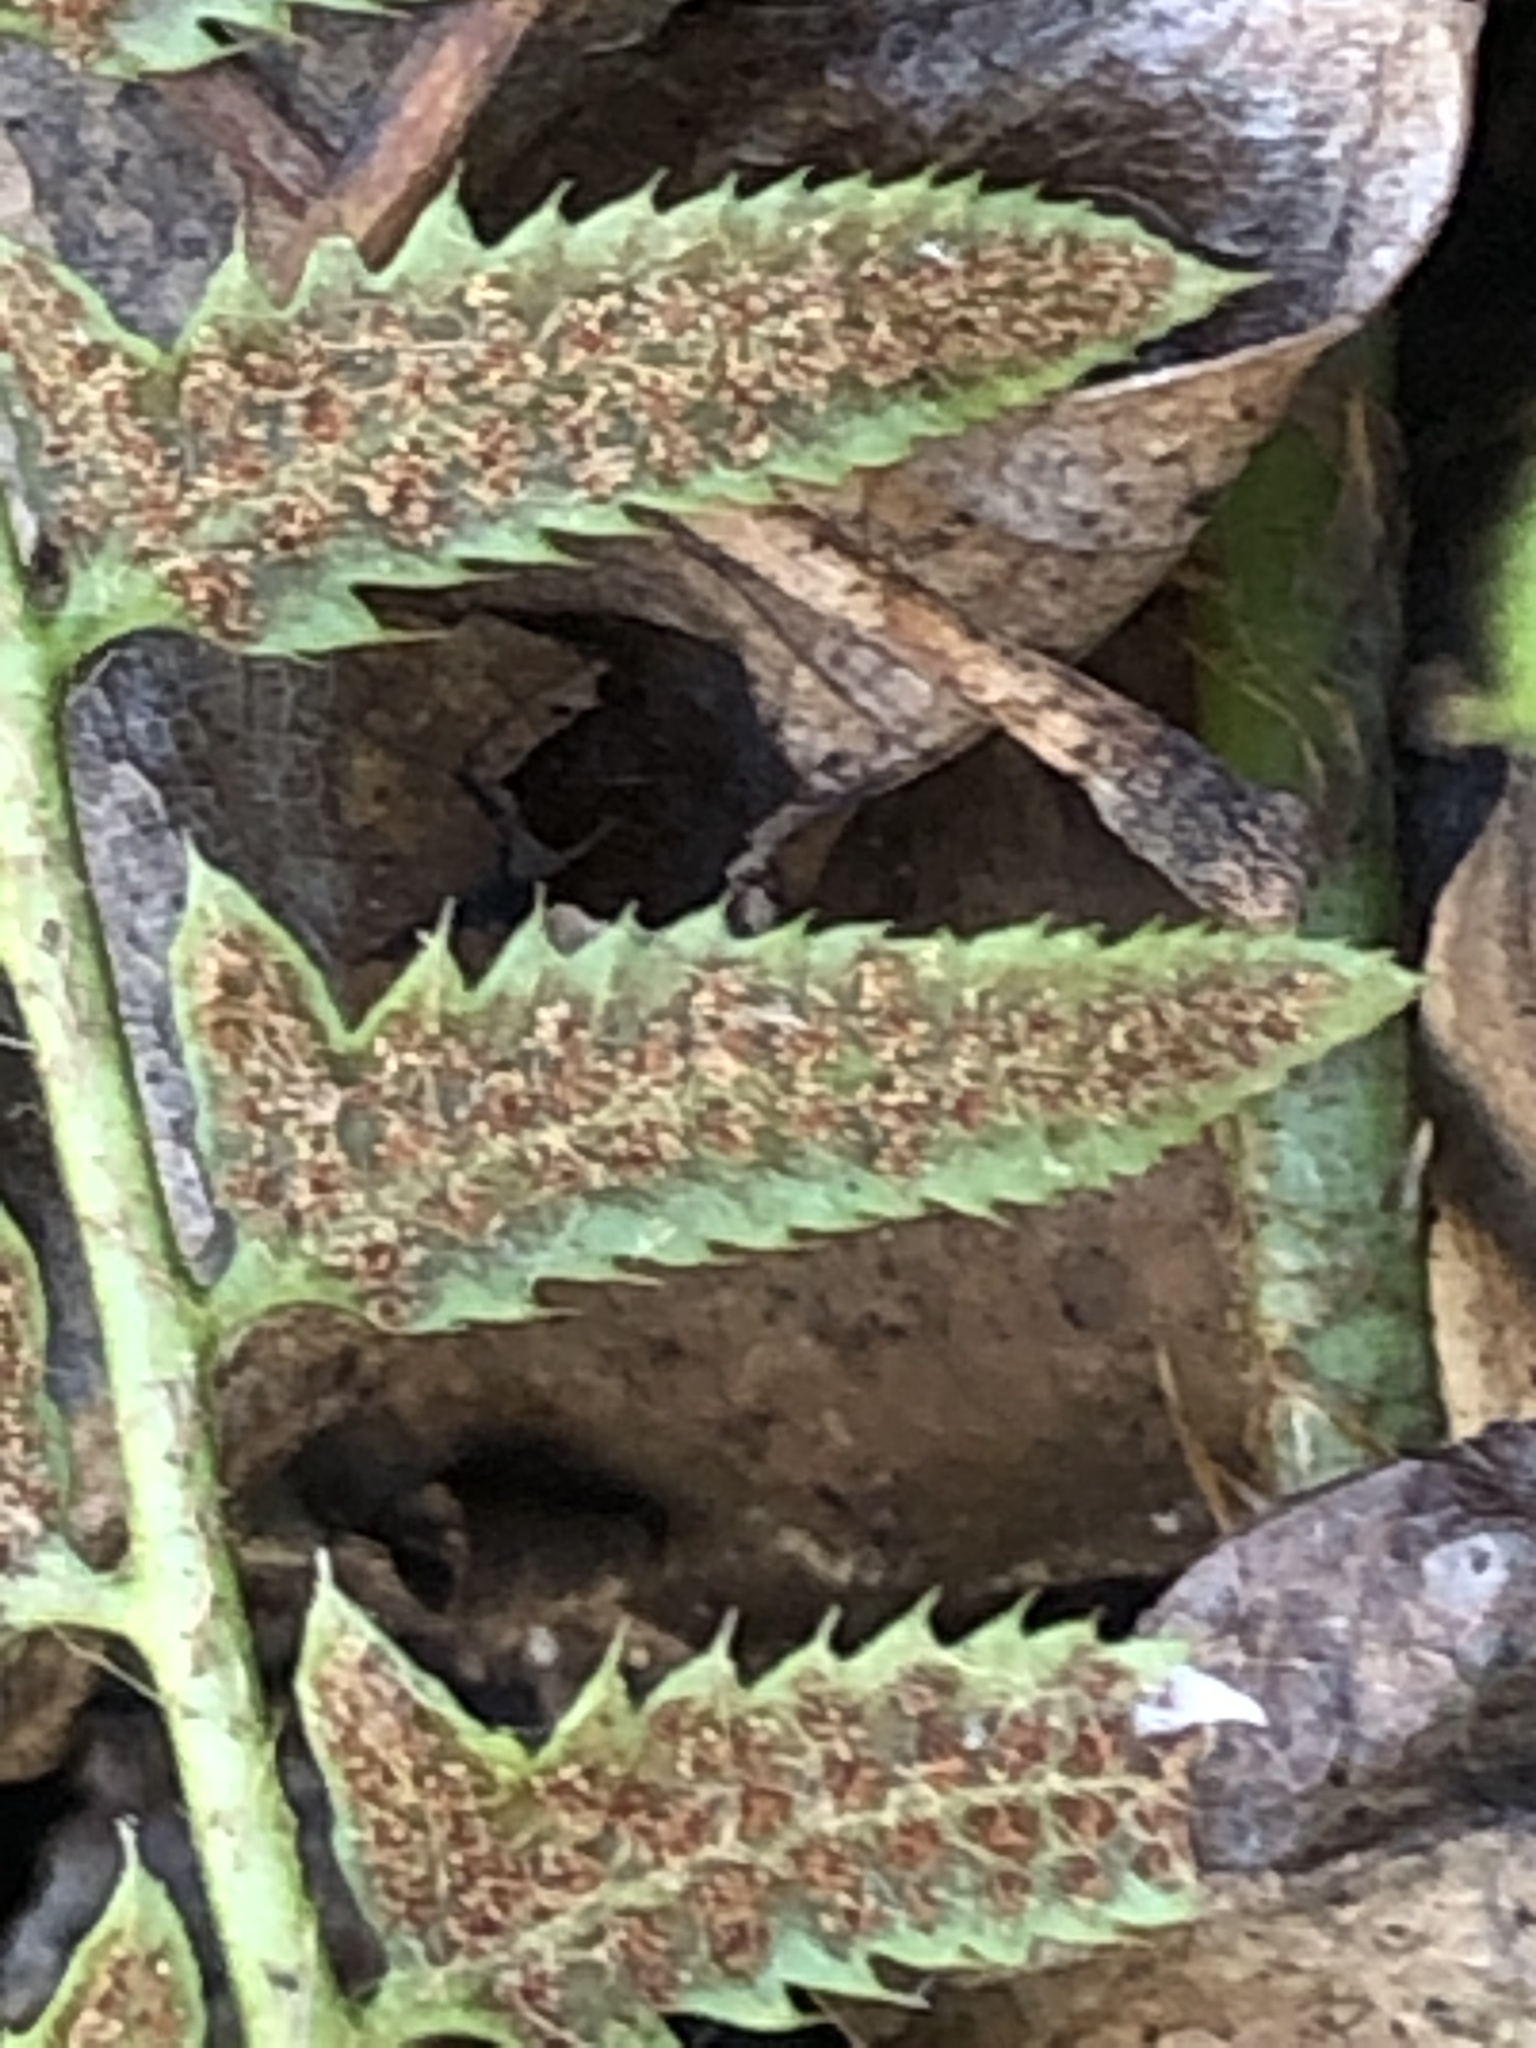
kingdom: Plantae
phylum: Tracheophyta
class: Polypodiopsida
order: Polypodiales
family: Dryopteridaceae
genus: Polystichum
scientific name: Polystichum acrostichoides
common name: Christmas fern
